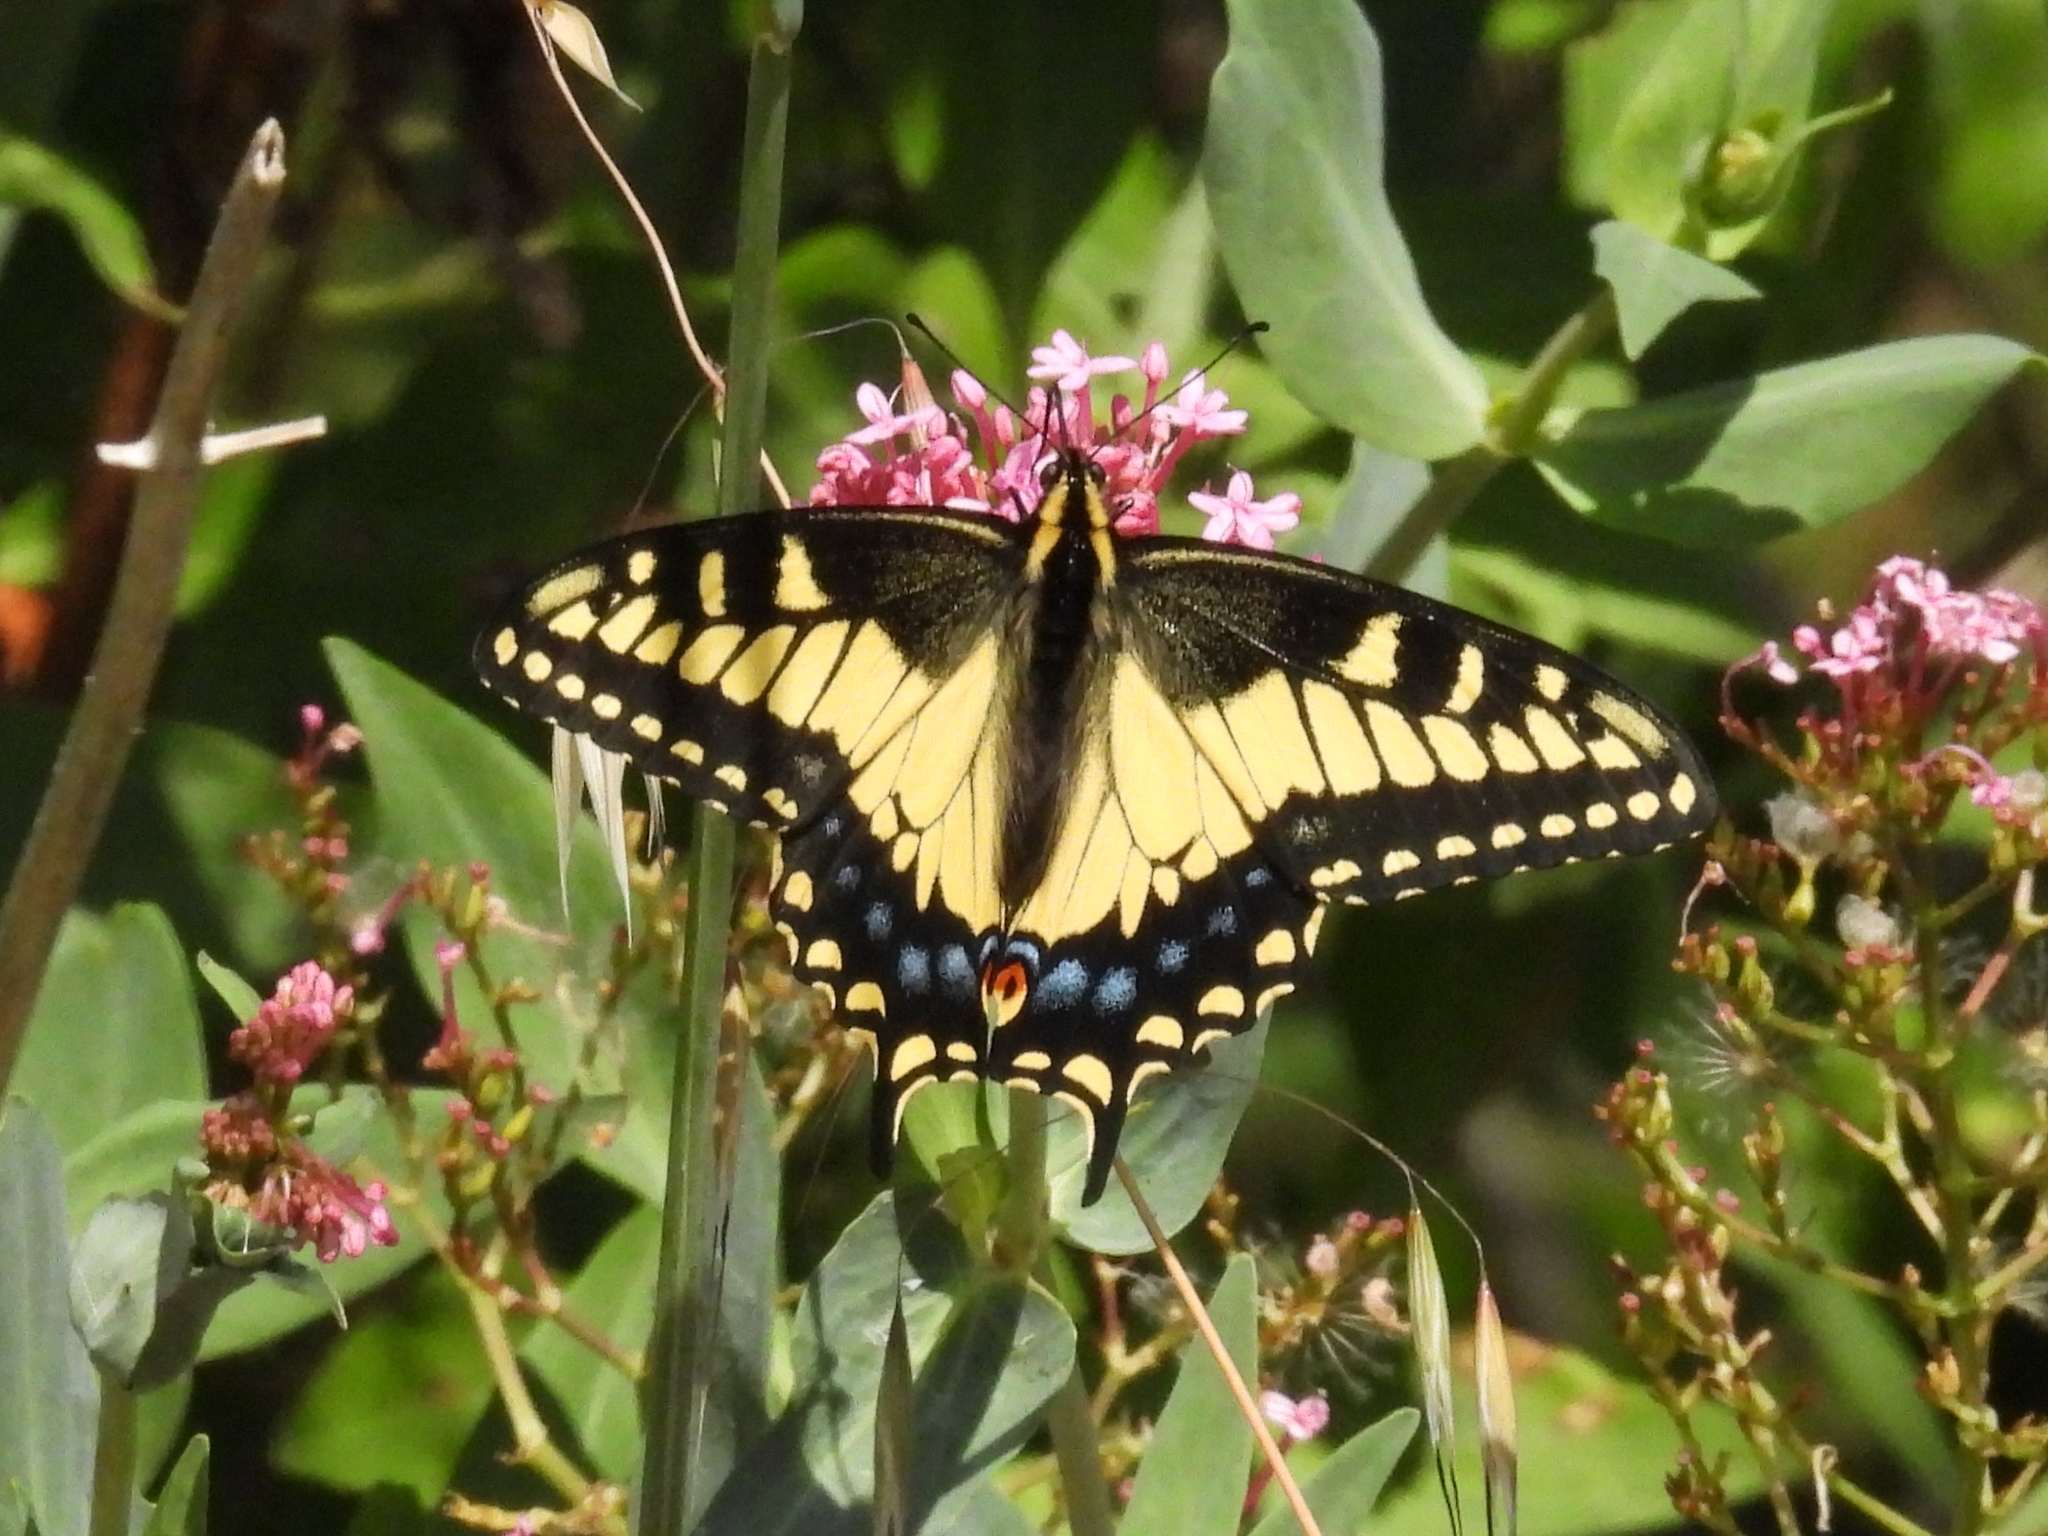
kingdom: Animalia
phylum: Arthropoda
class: Insecta
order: Lepidoptera
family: Papilionidae
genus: Papilio
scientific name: Papilio zelicaon
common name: Anise swallowtail
